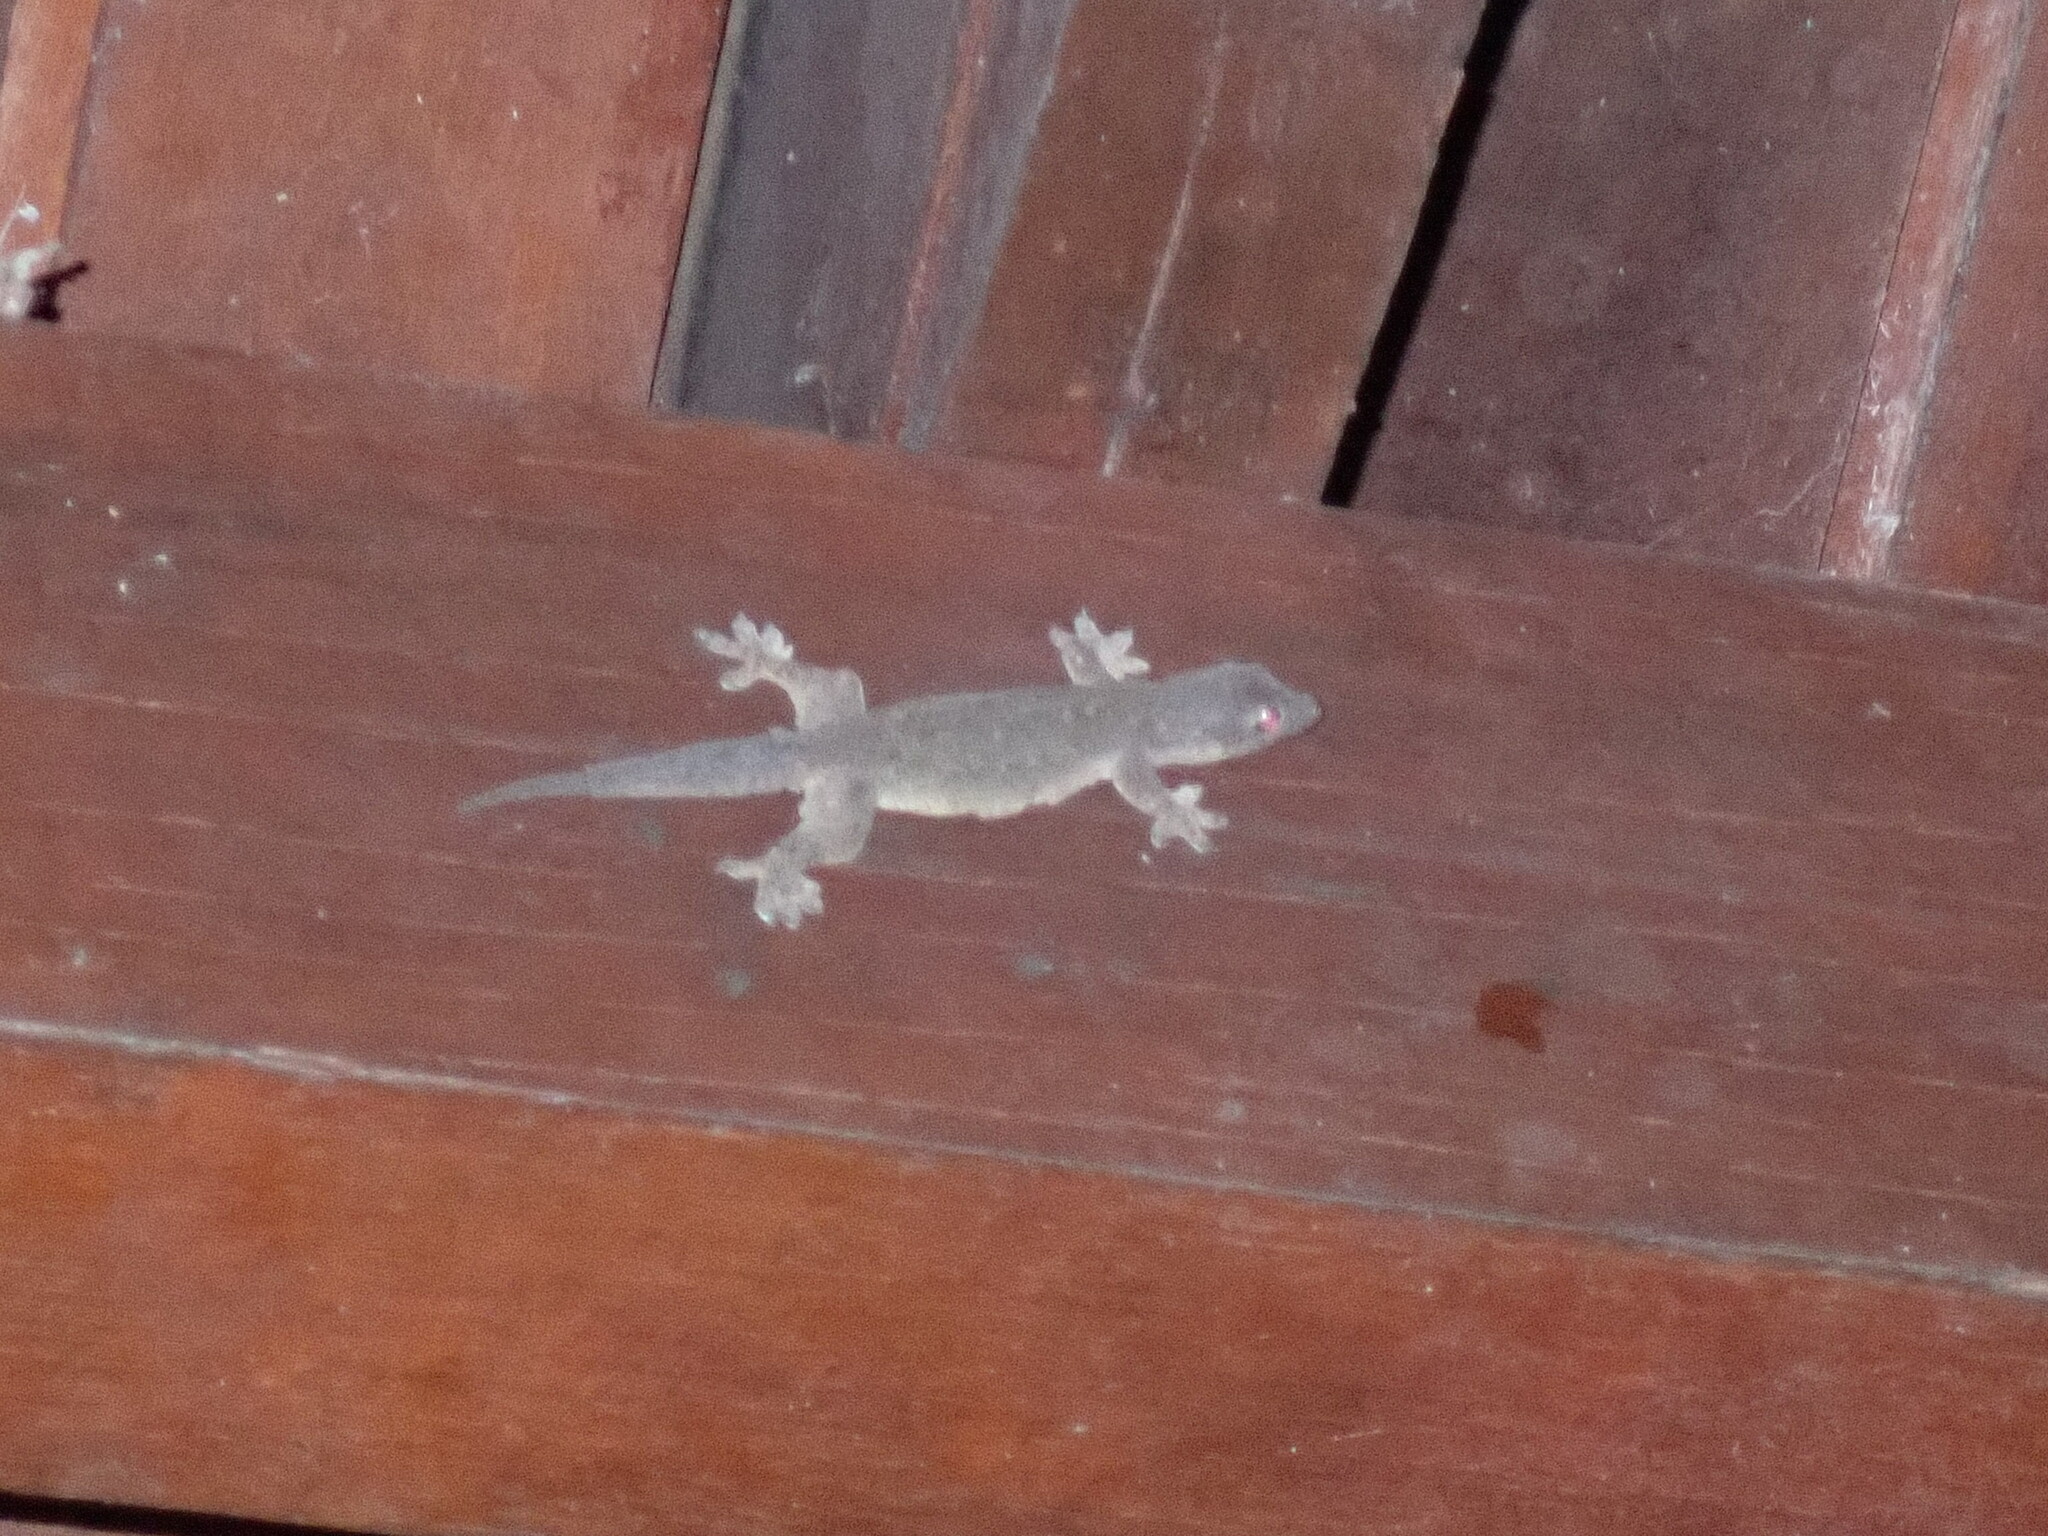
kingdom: Animalia
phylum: Chordata
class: Squamata
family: Gekkonidae
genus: Hemidactylus
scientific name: Hemidactylus platyurus
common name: Flat-tailed house gecko
